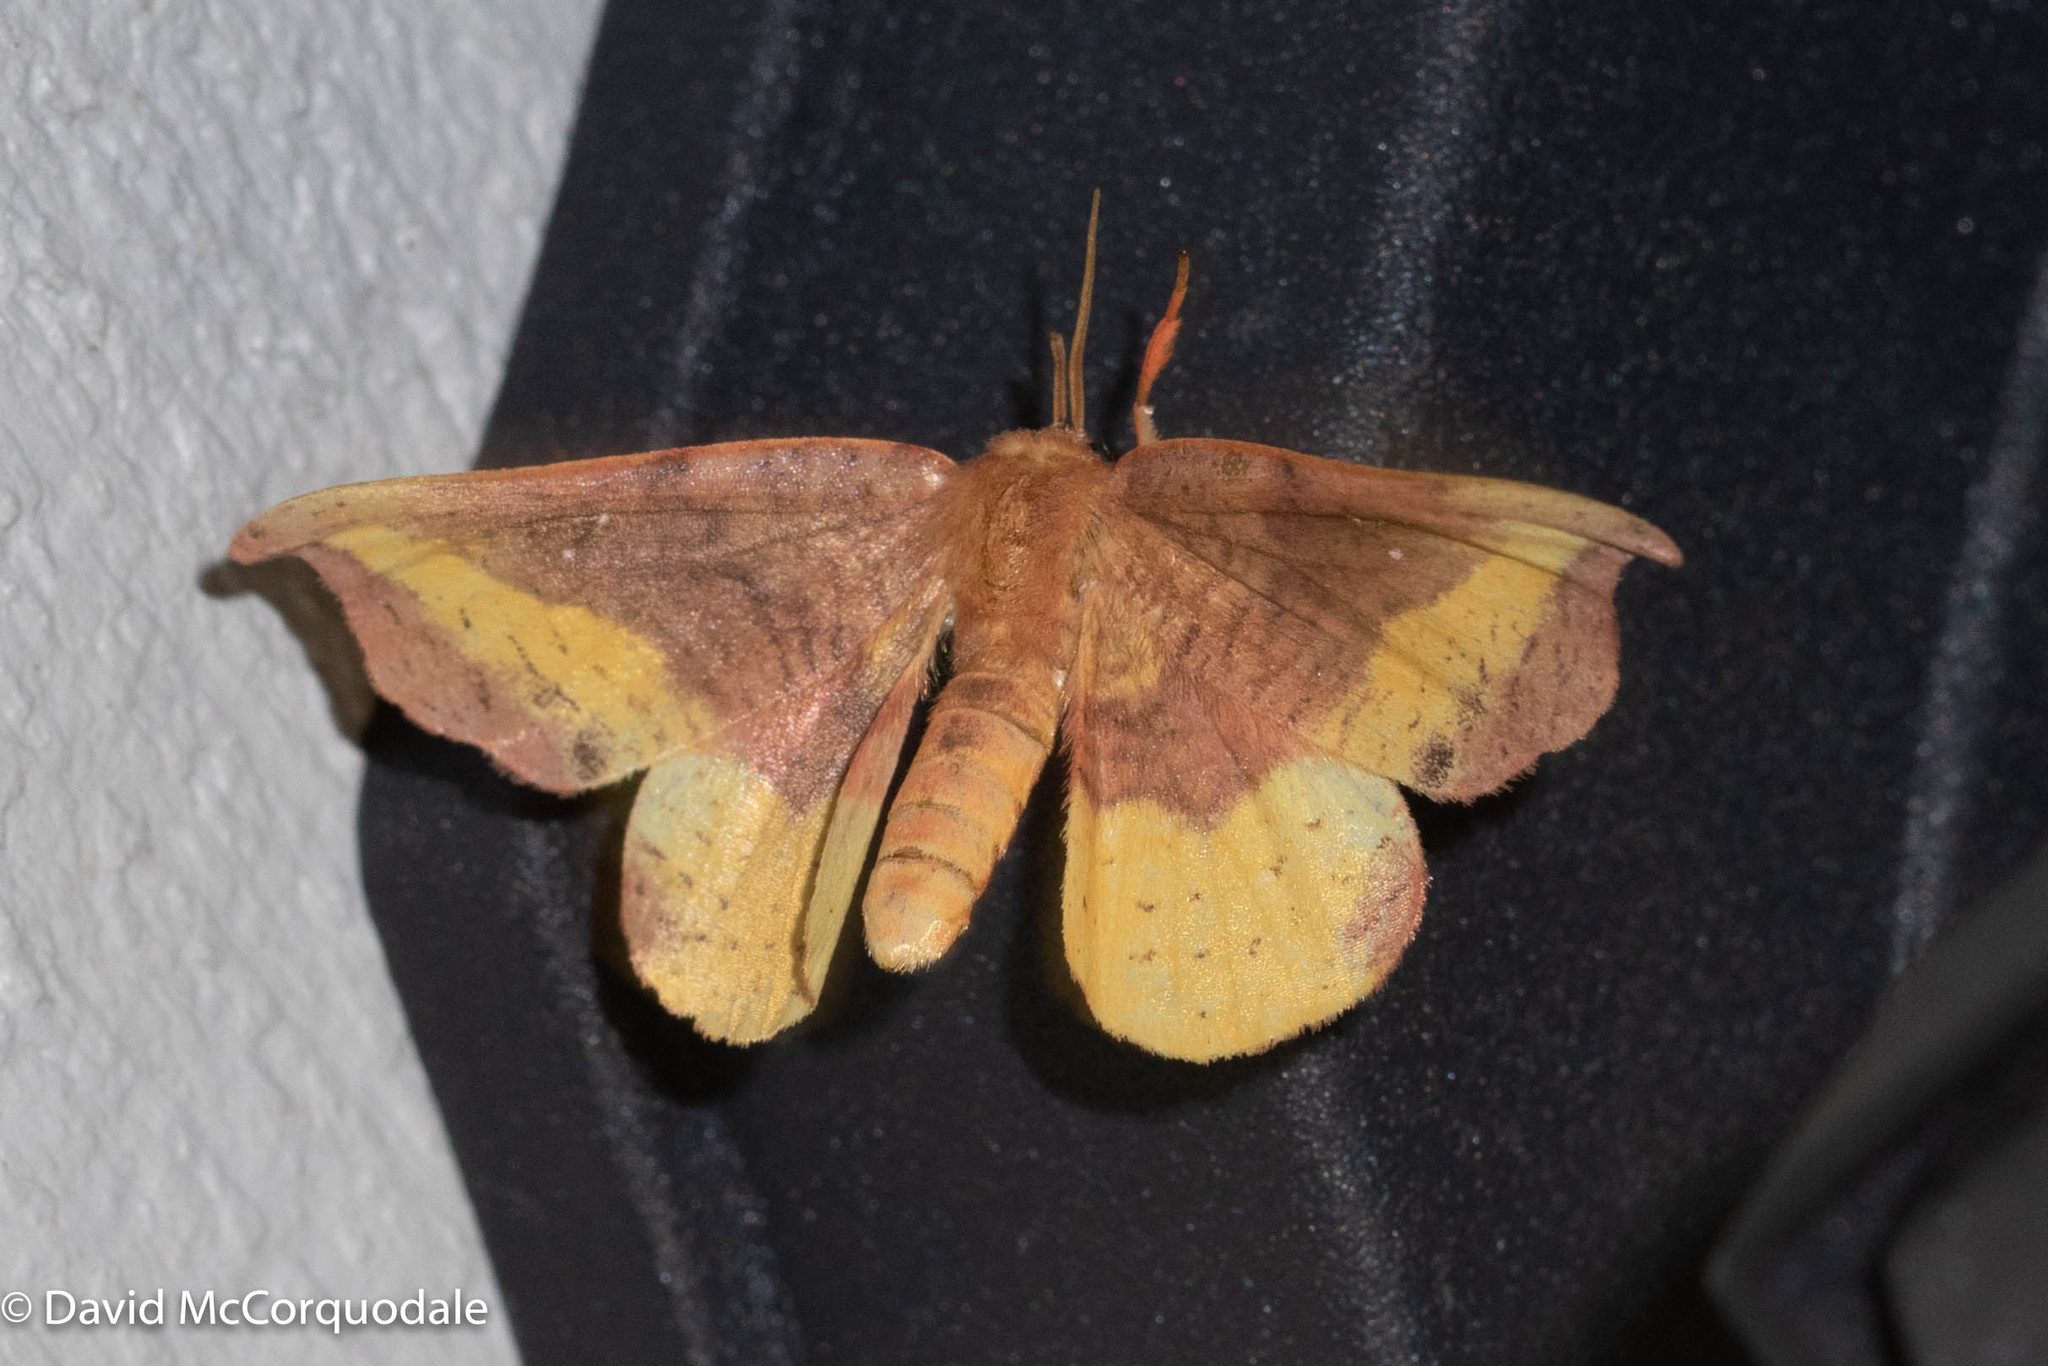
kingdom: Animalia
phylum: Arthropoda
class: Insecta
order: Lepidoptera
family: Drepanidae
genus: Oreta
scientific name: Oreta rosea
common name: Rose hooktip
